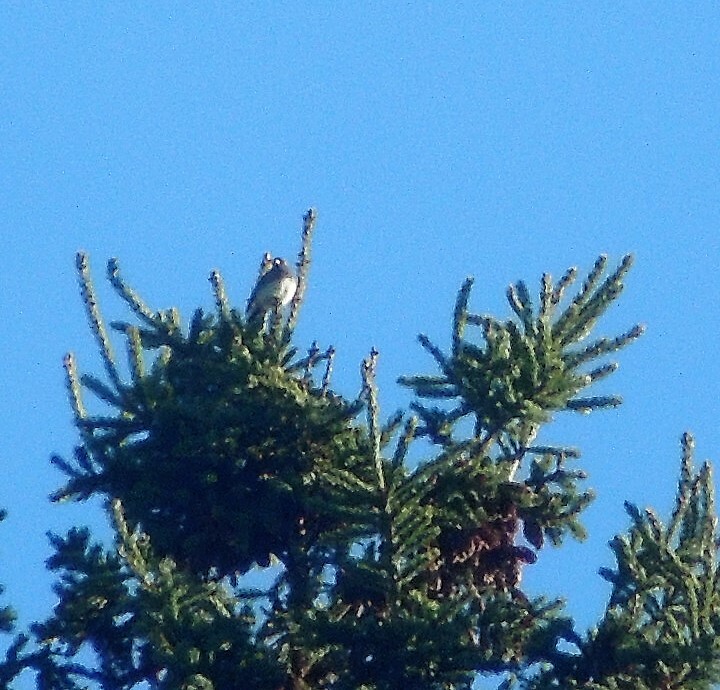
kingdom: Animalia
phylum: Chordata
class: Aves
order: Passeriformes
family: Passerellidae
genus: Junco
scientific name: Junco hyemalis
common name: Dark-eyed junco
